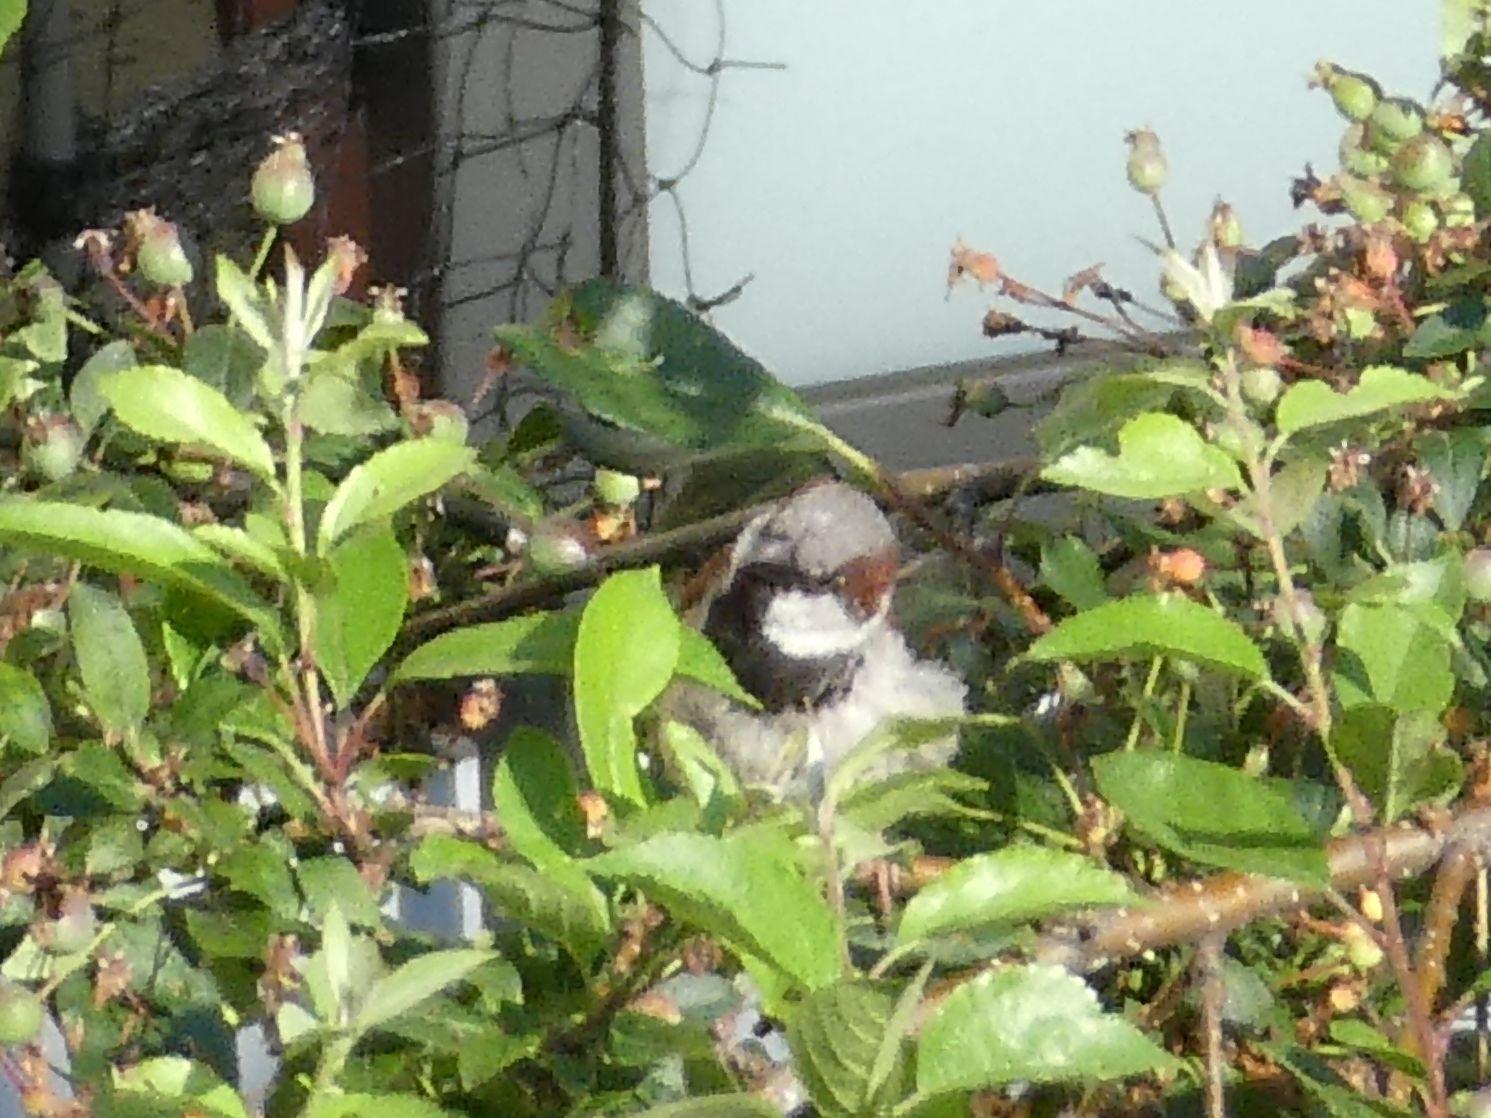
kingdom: Animalia
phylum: Chordata
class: Aves
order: Passeriformes
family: Passeridae
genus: Passer
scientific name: Passer domesticus
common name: House sparrow
